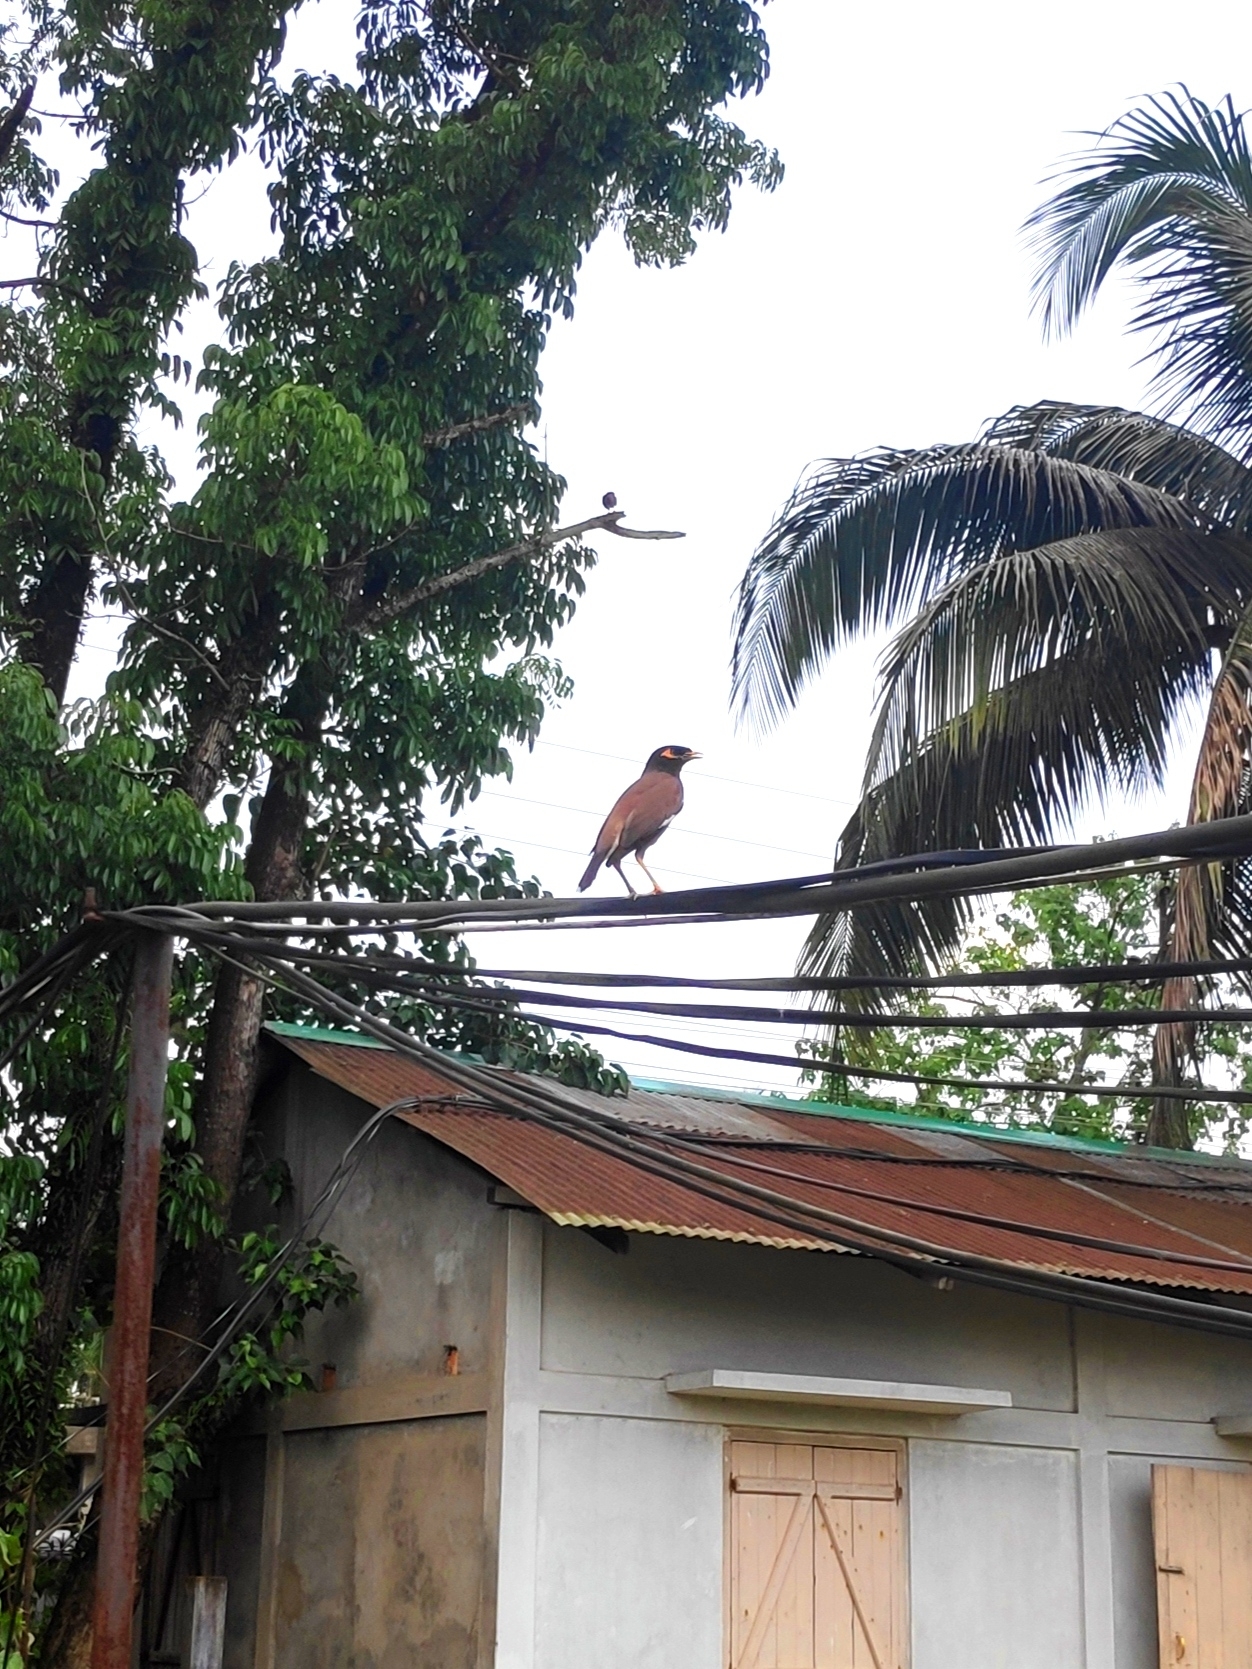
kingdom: Animalia
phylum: Chordata
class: Aves
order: Passeriformes
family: Sturnidae
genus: Acridotheres
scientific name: Acridotheres tristis
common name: Common myna
